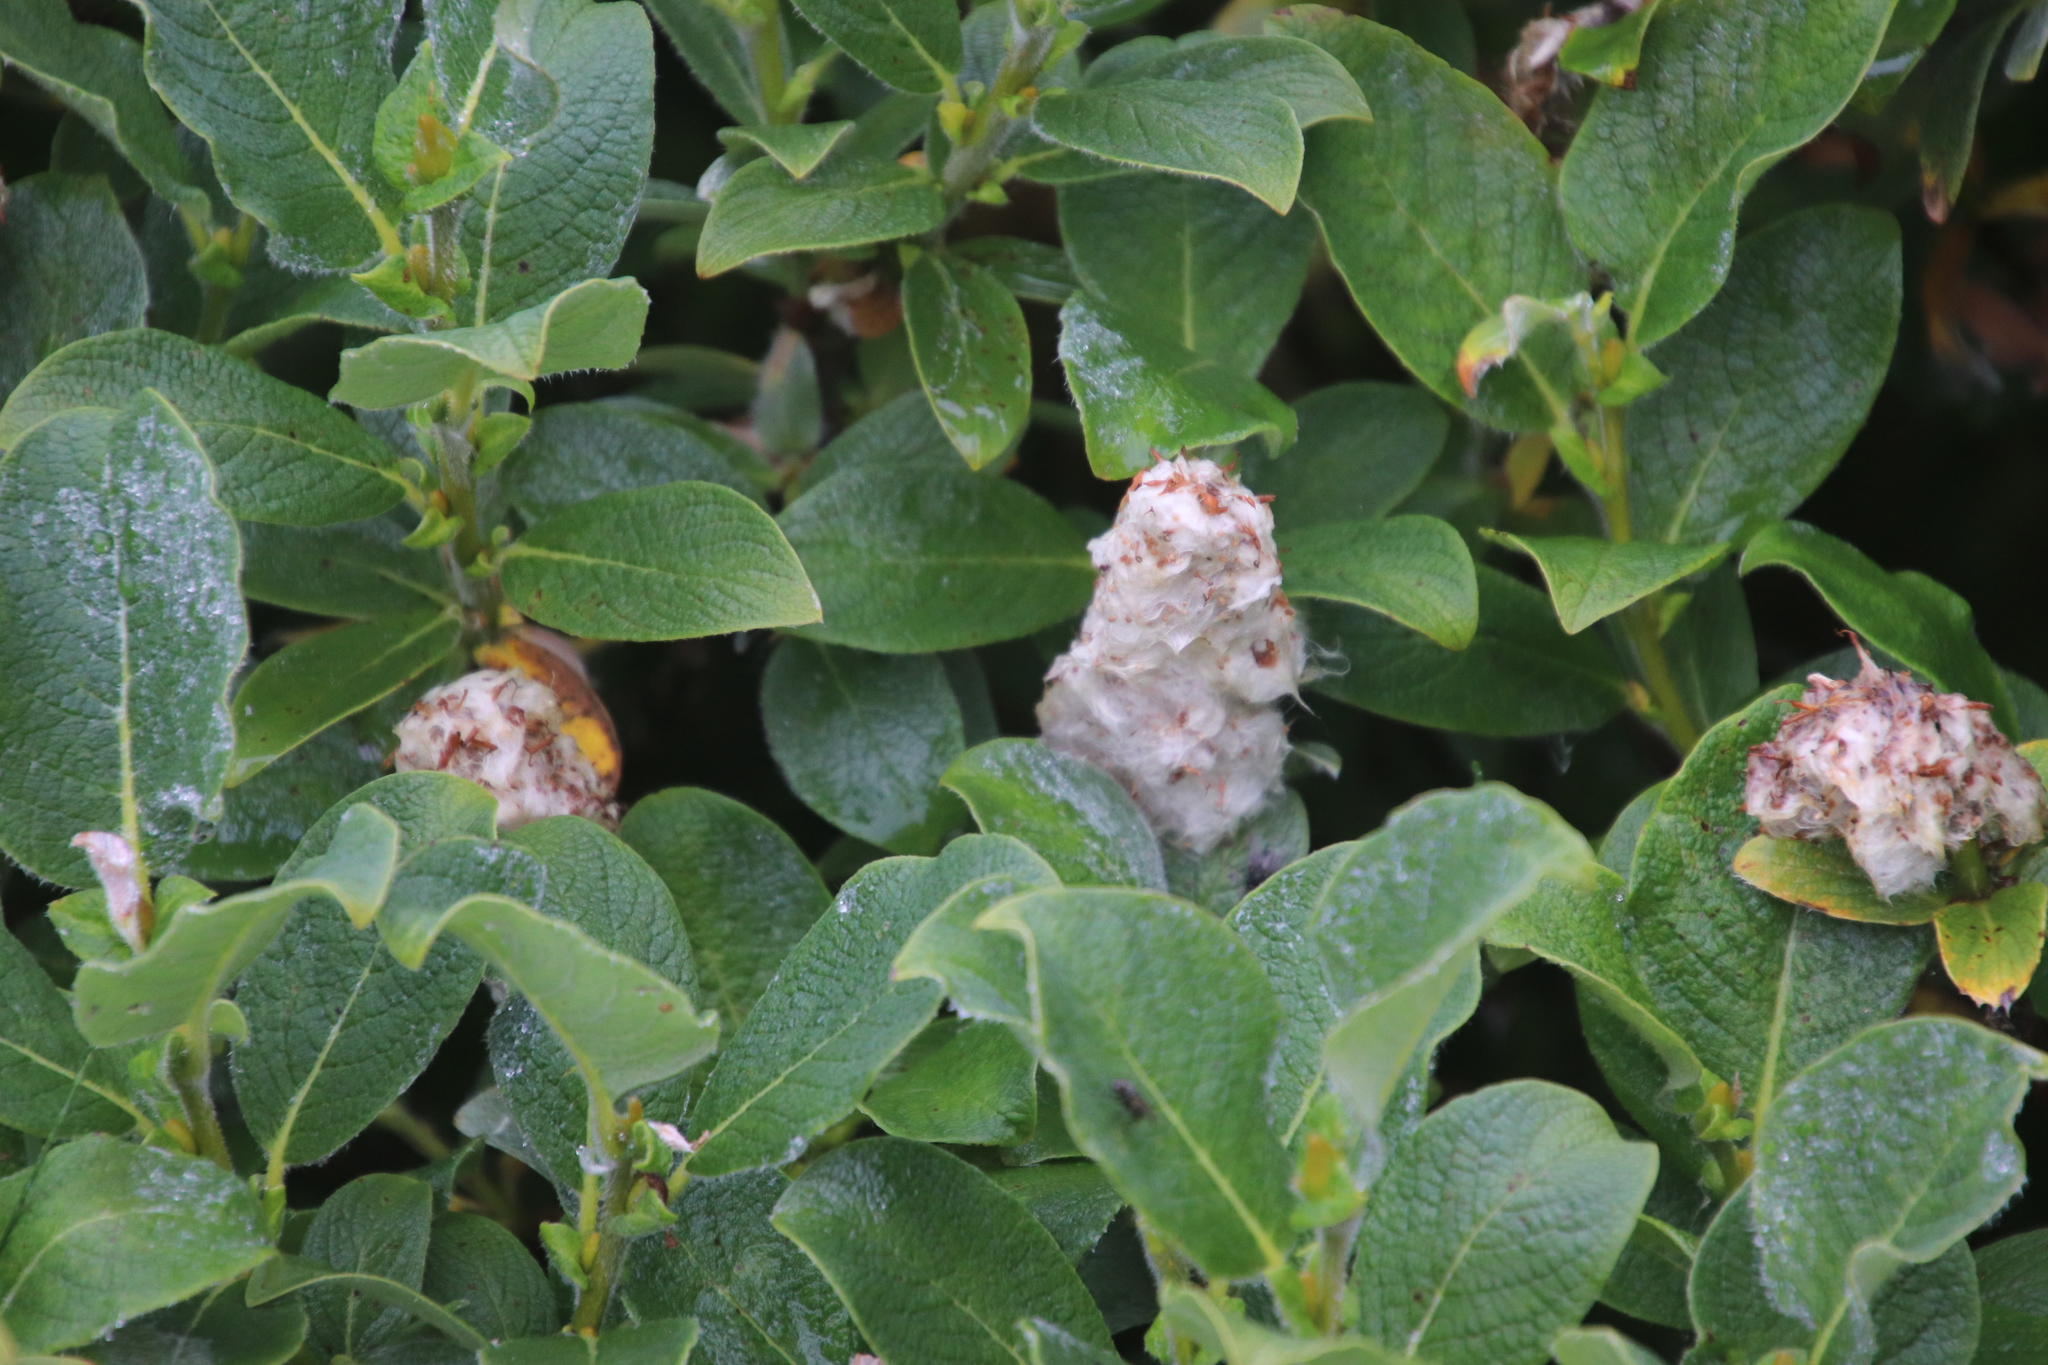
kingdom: Plantae
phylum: Tracheophyta
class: Magnoliopsida
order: Malpighiales
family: Salicaceae
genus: Salix
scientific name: Salix lanata
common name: Woolly willow
